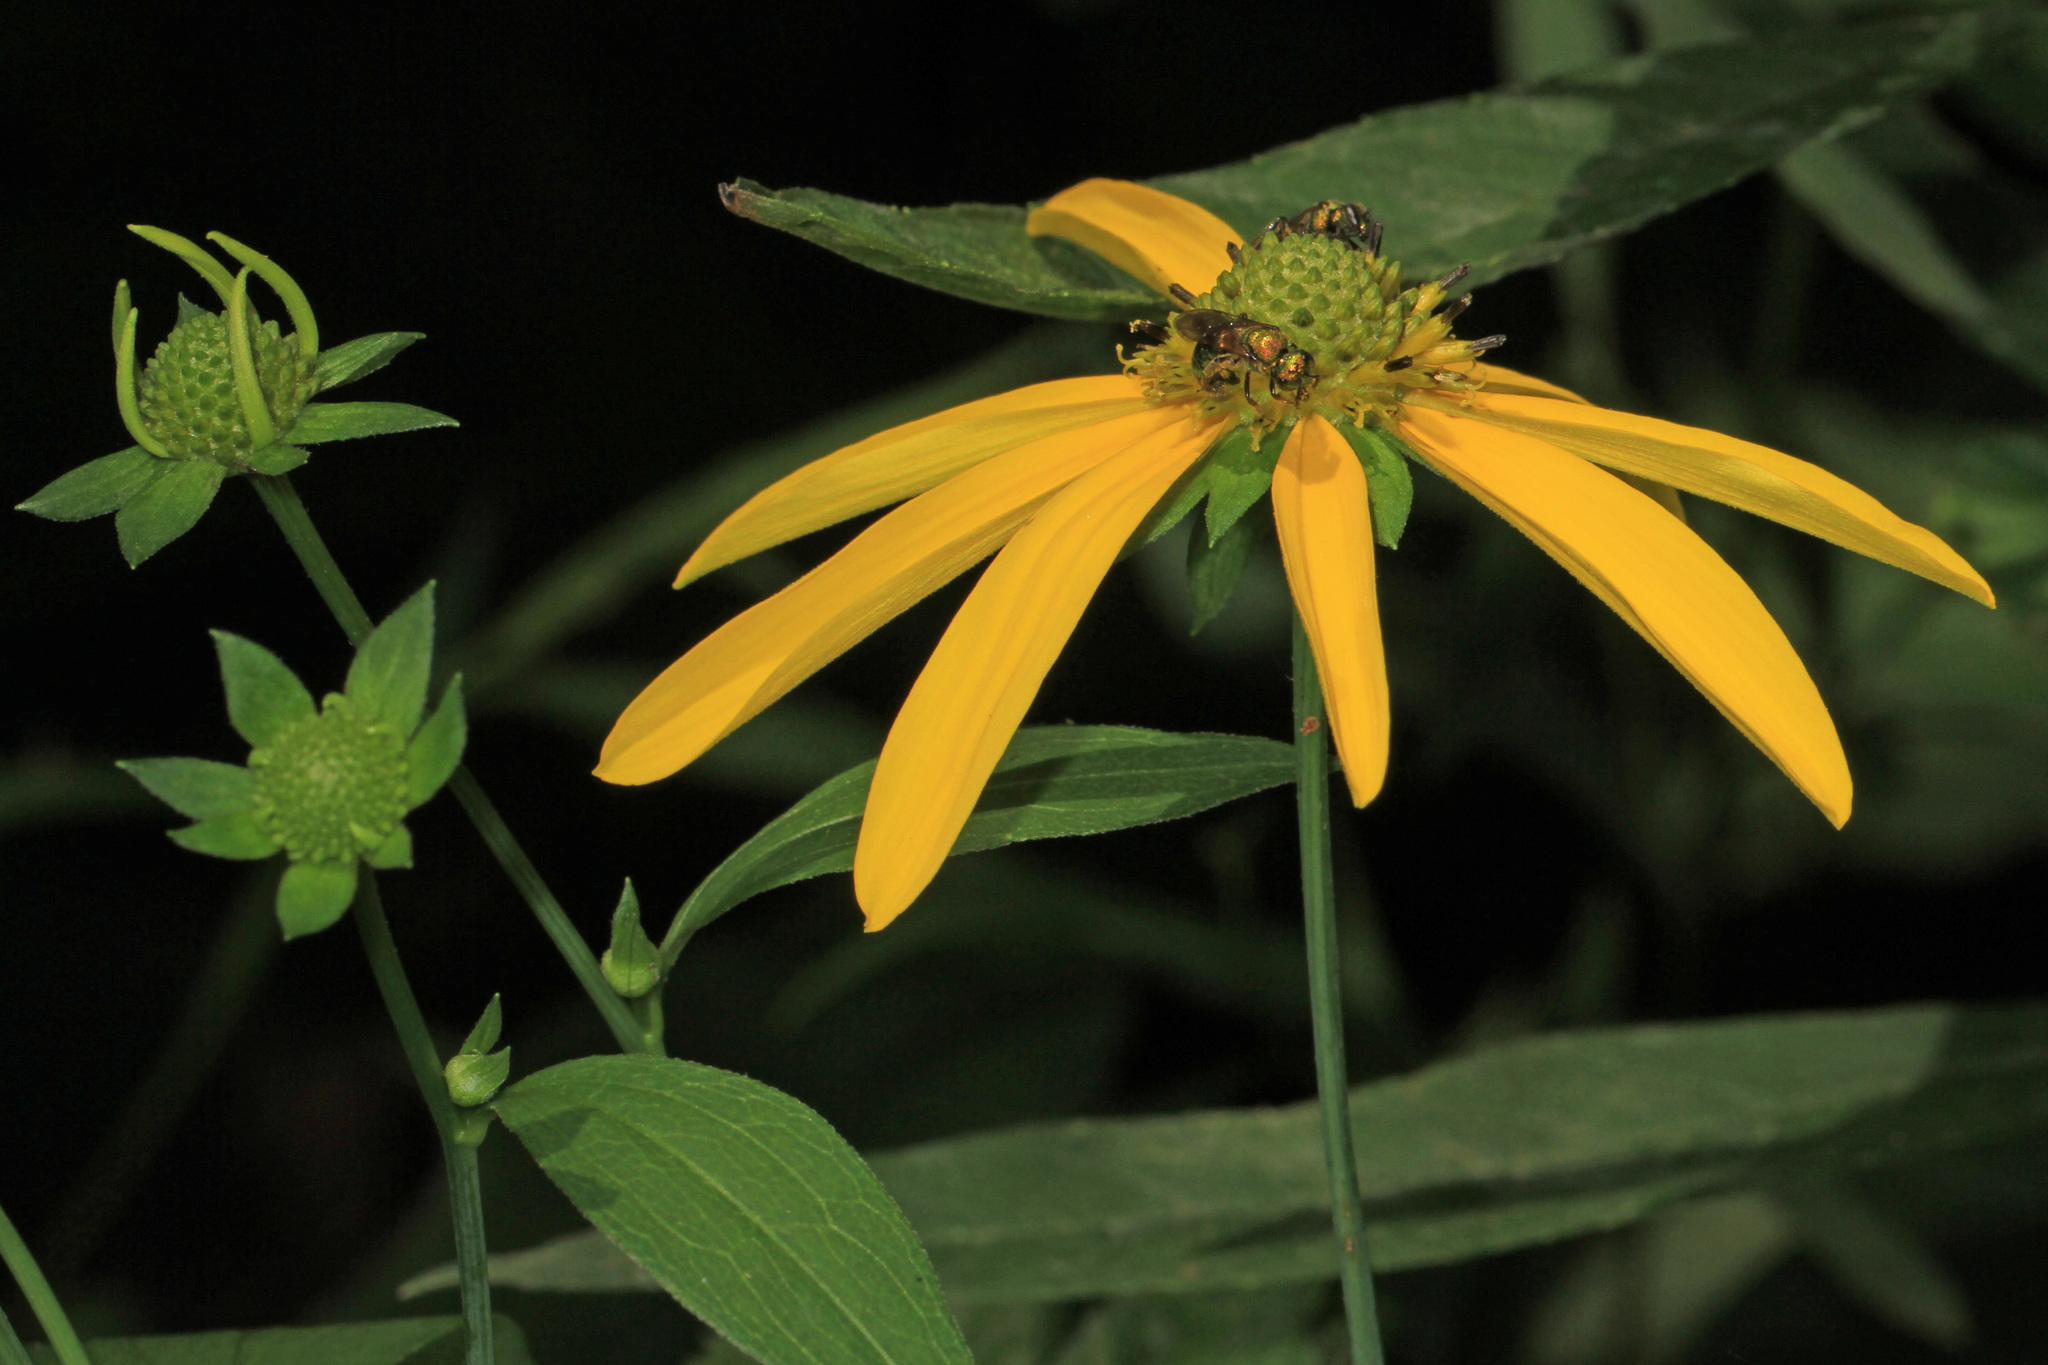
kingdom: Plantae
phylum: Tracheophyta
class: Magnoliopsida
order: Asterales
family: Asteraceae
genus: Rudbeckia
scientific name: Rudbeckia laciniata
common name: Coneflower
